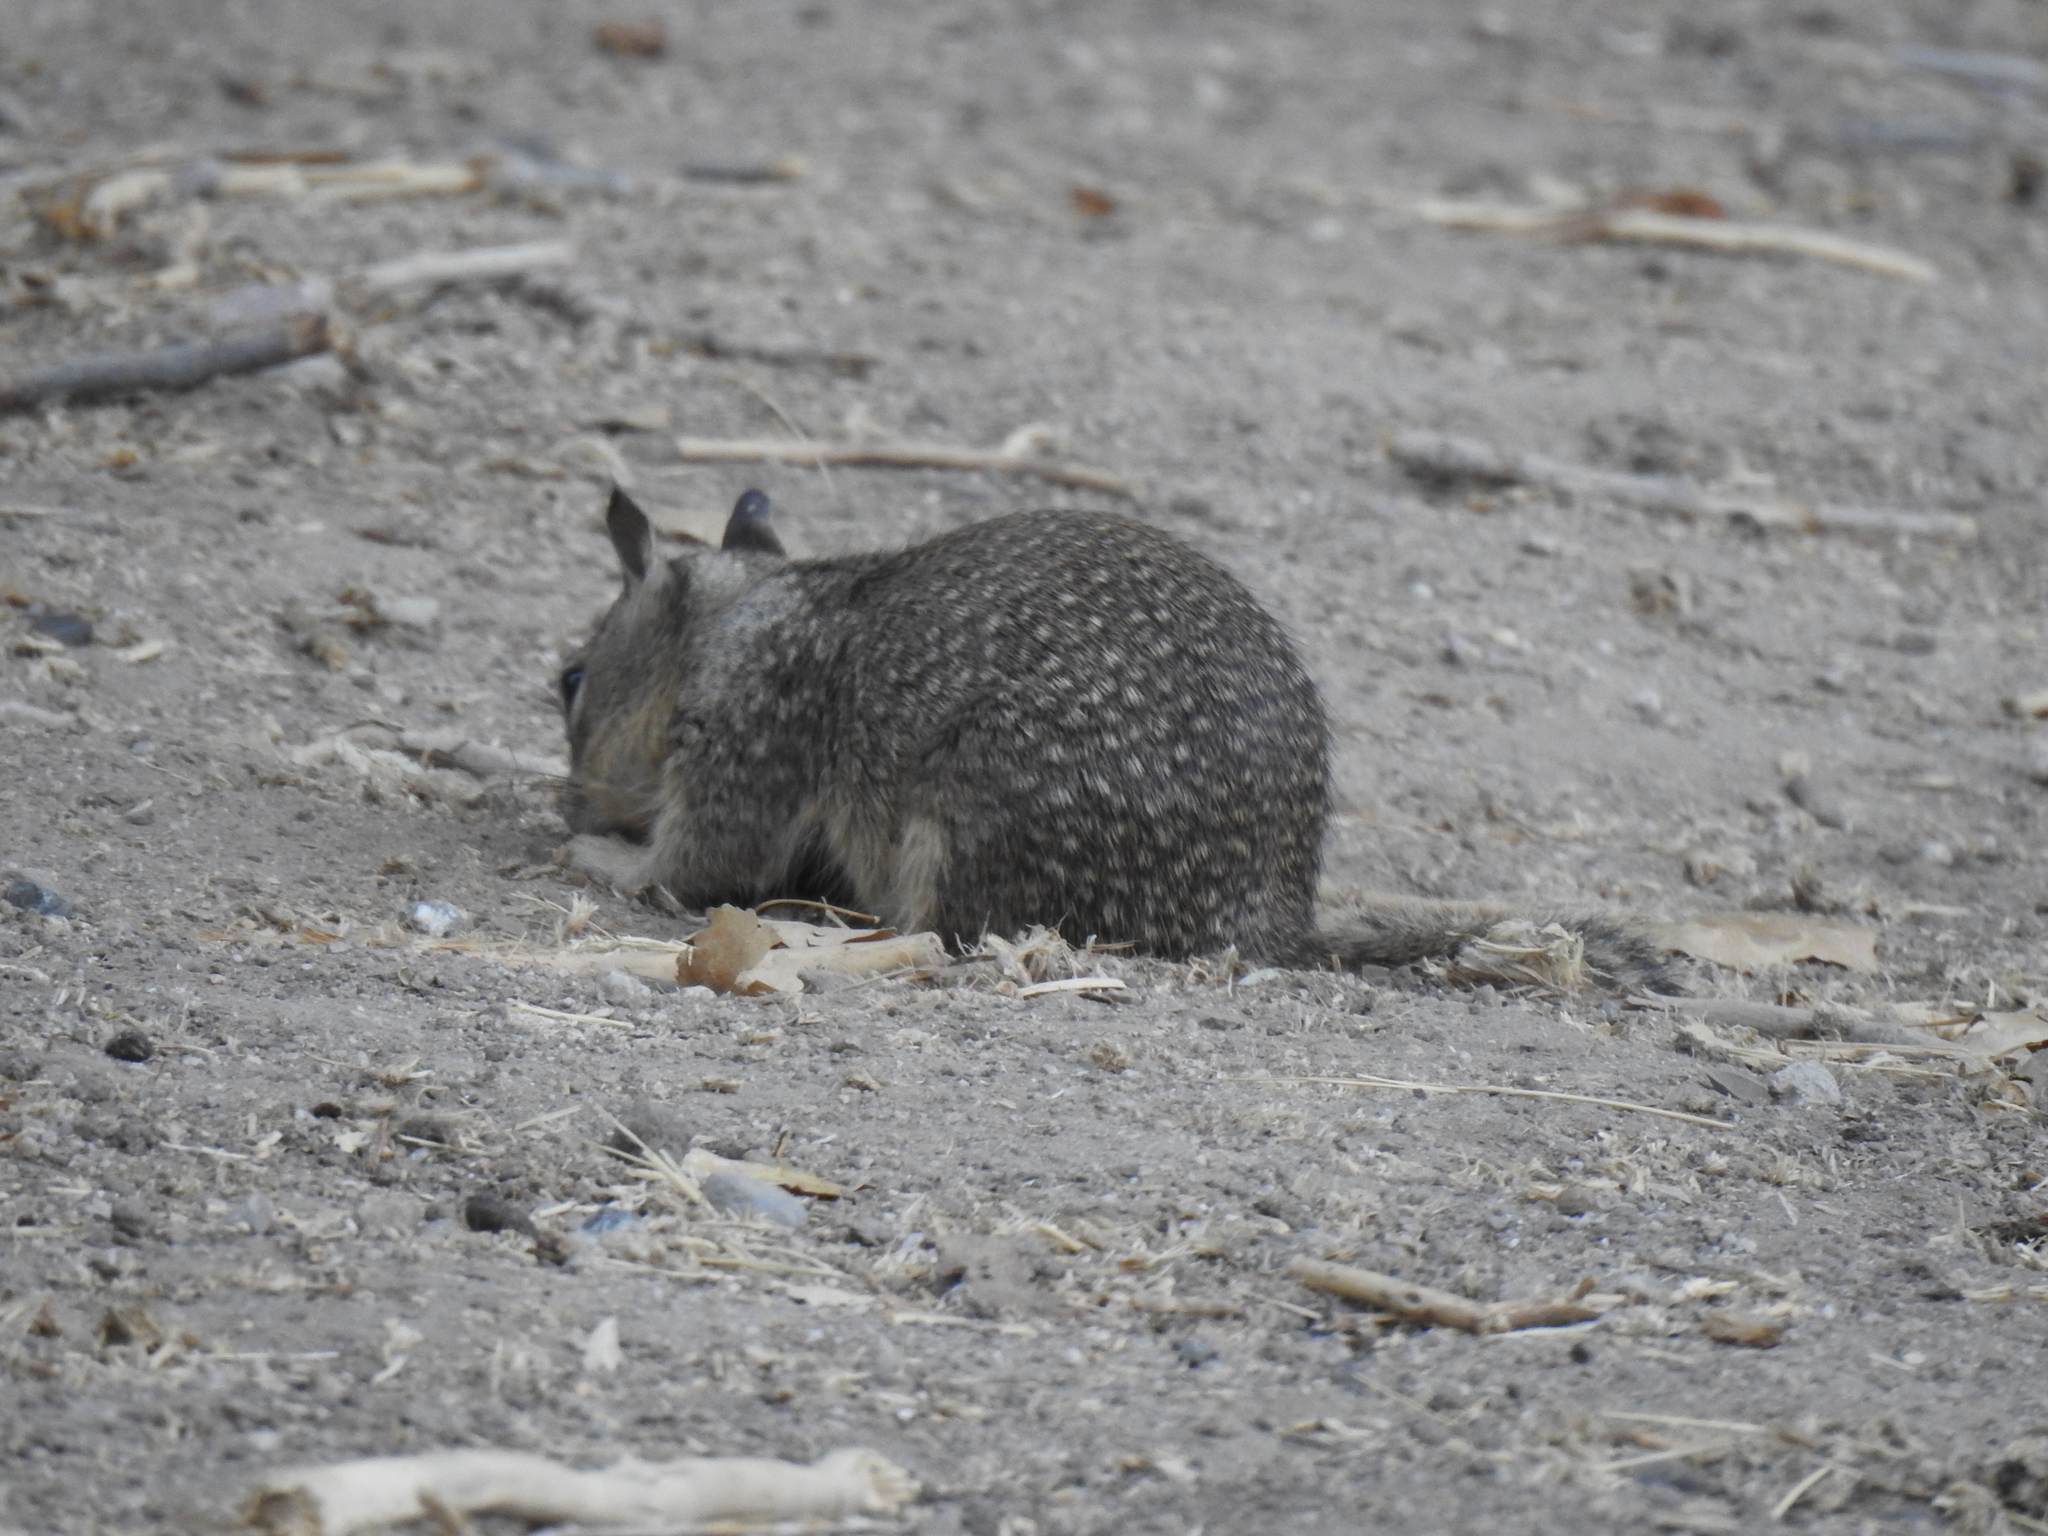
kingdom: Animalia
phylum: Chordata
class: Mammalia
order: Rodentia
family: Sciuridae
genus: Otospermophilus
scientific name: Otospermophilus beecheyi
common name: California ground squirrel
